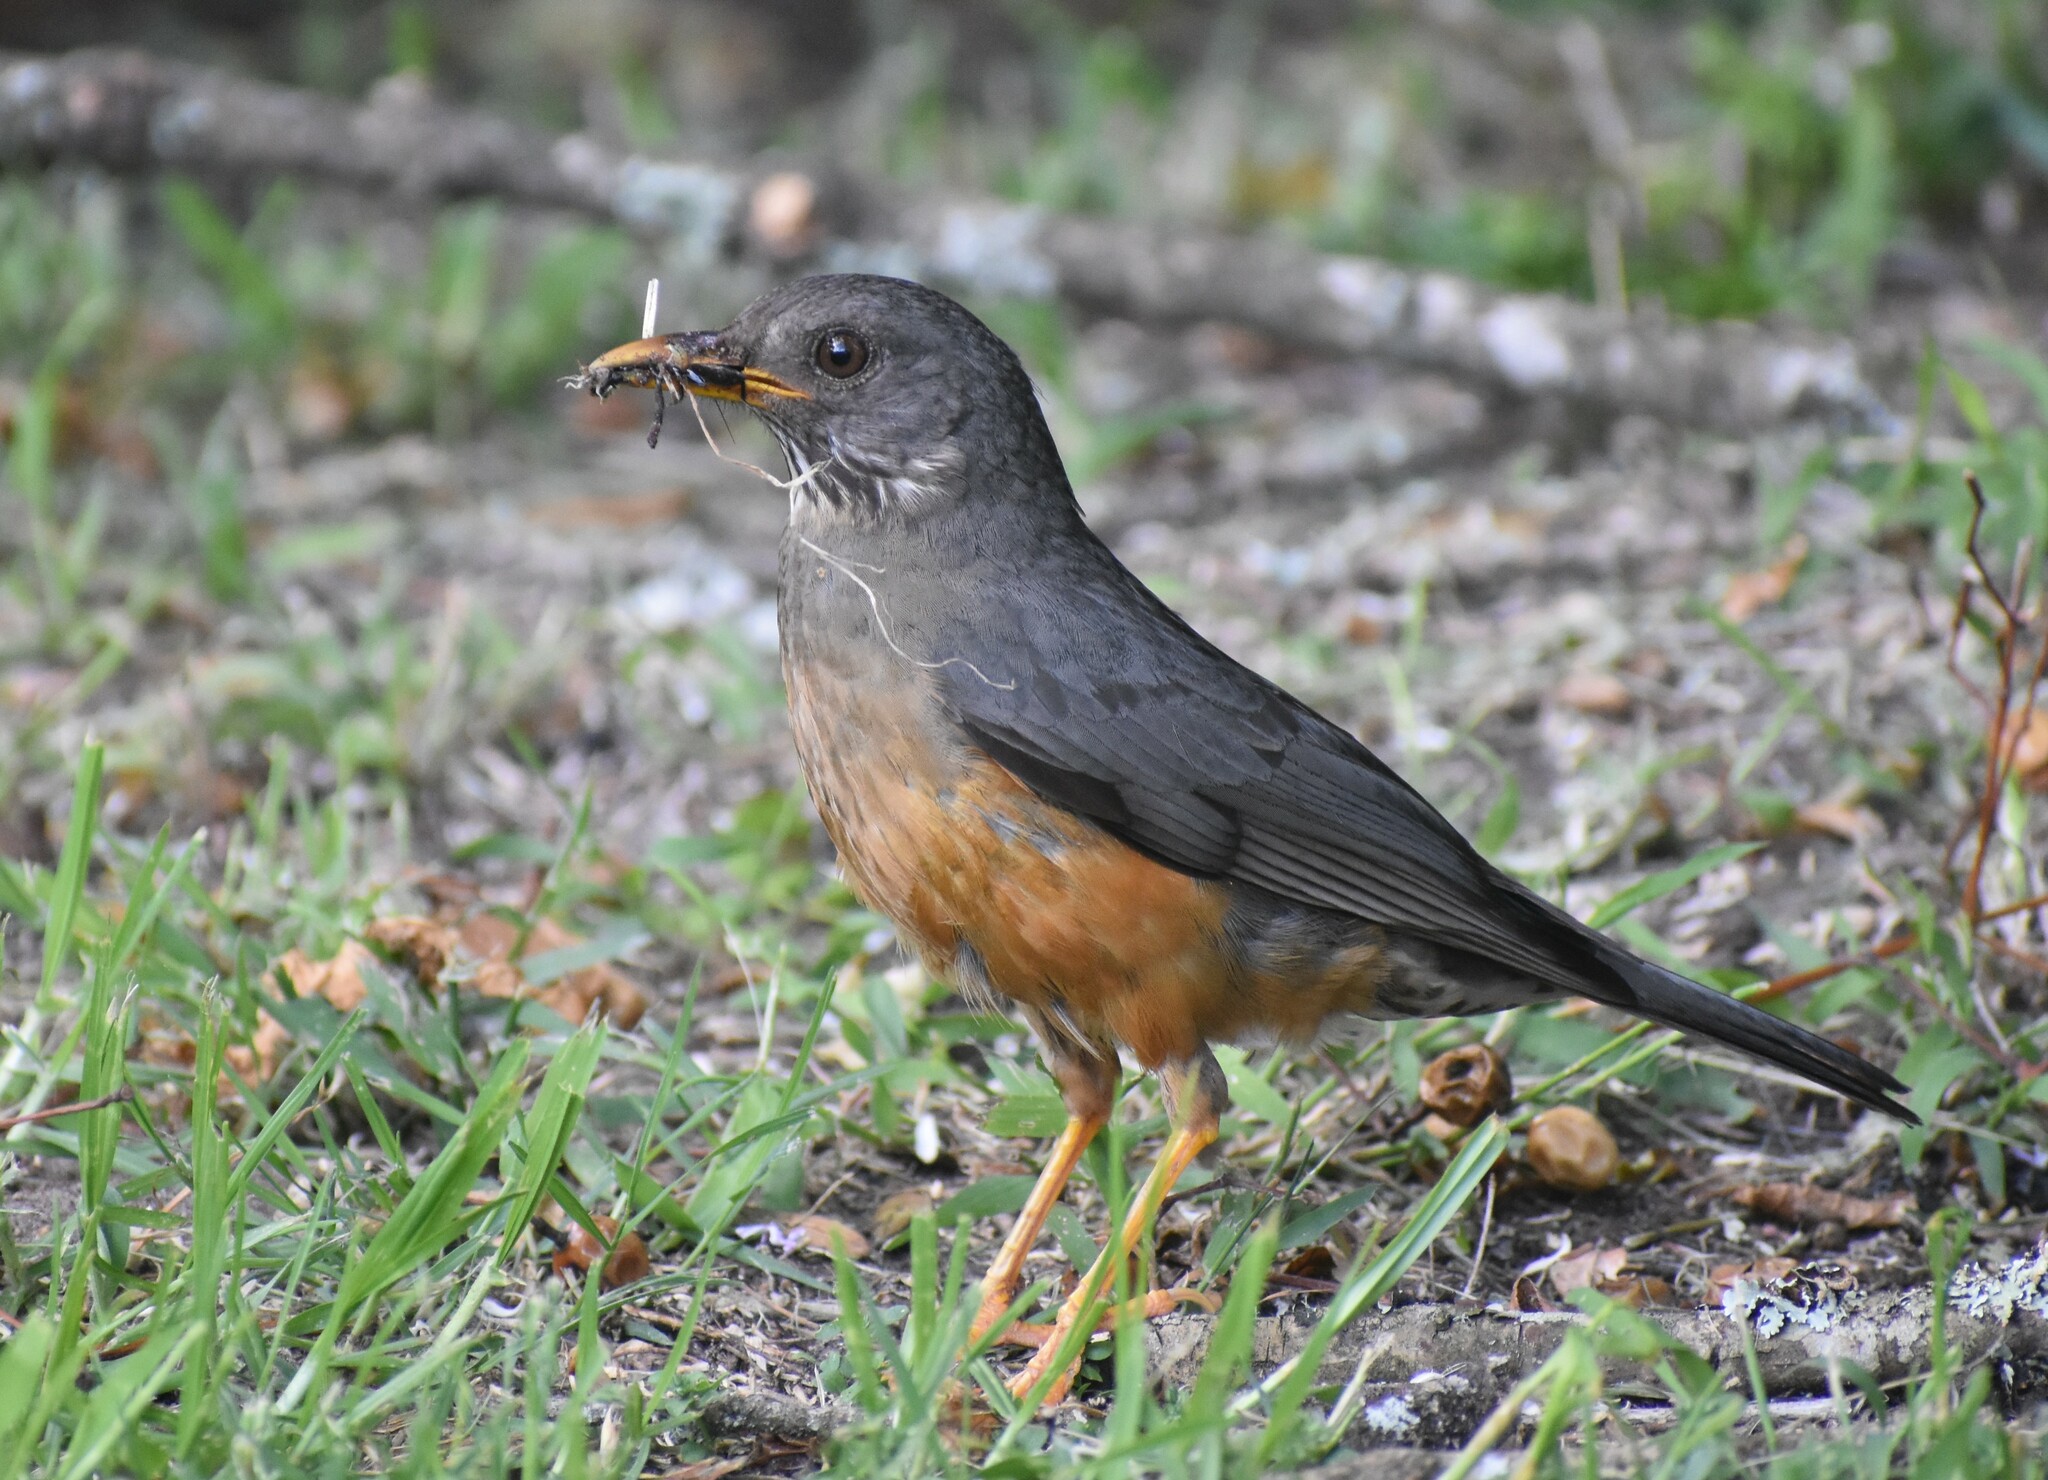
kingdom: Animalia
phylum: Chordata
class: Aves
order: Passeriformes
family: Turdidae
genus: Turdus
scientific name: Turdus olivaceus
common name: Olive thrush
